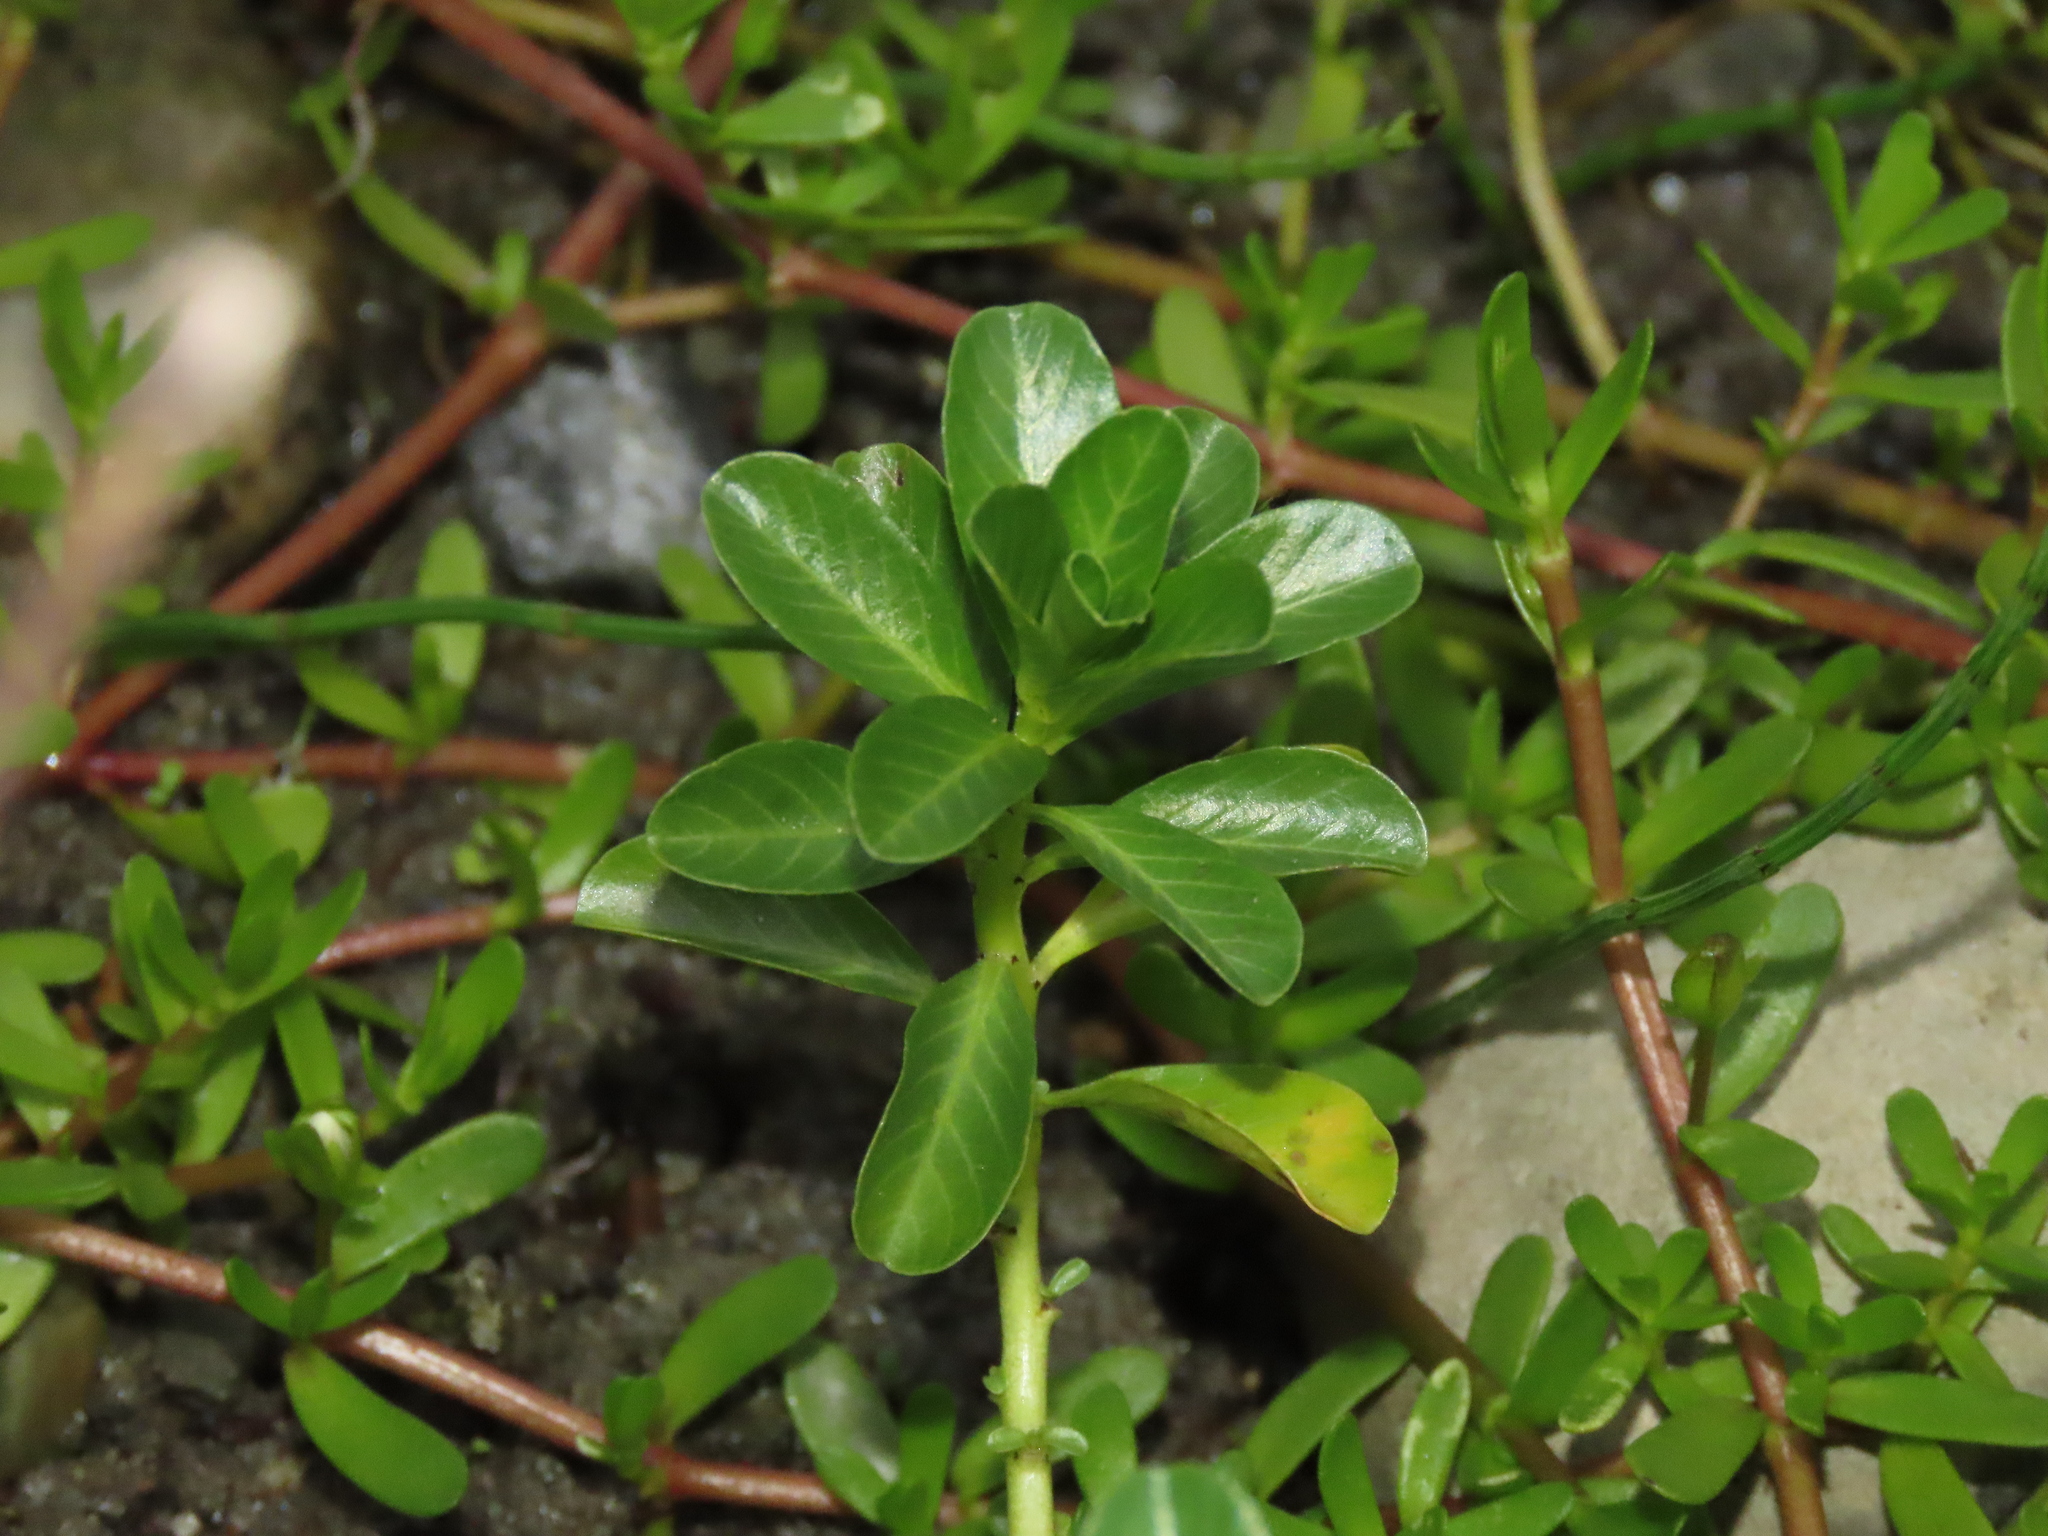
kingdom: Plantae
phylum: Tracheophyta
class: Magnoliopsida
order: Myrtales
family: Onagraceae
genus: Ludwigia
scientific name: Ludwigia adscendens
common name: Creeping water primrose
